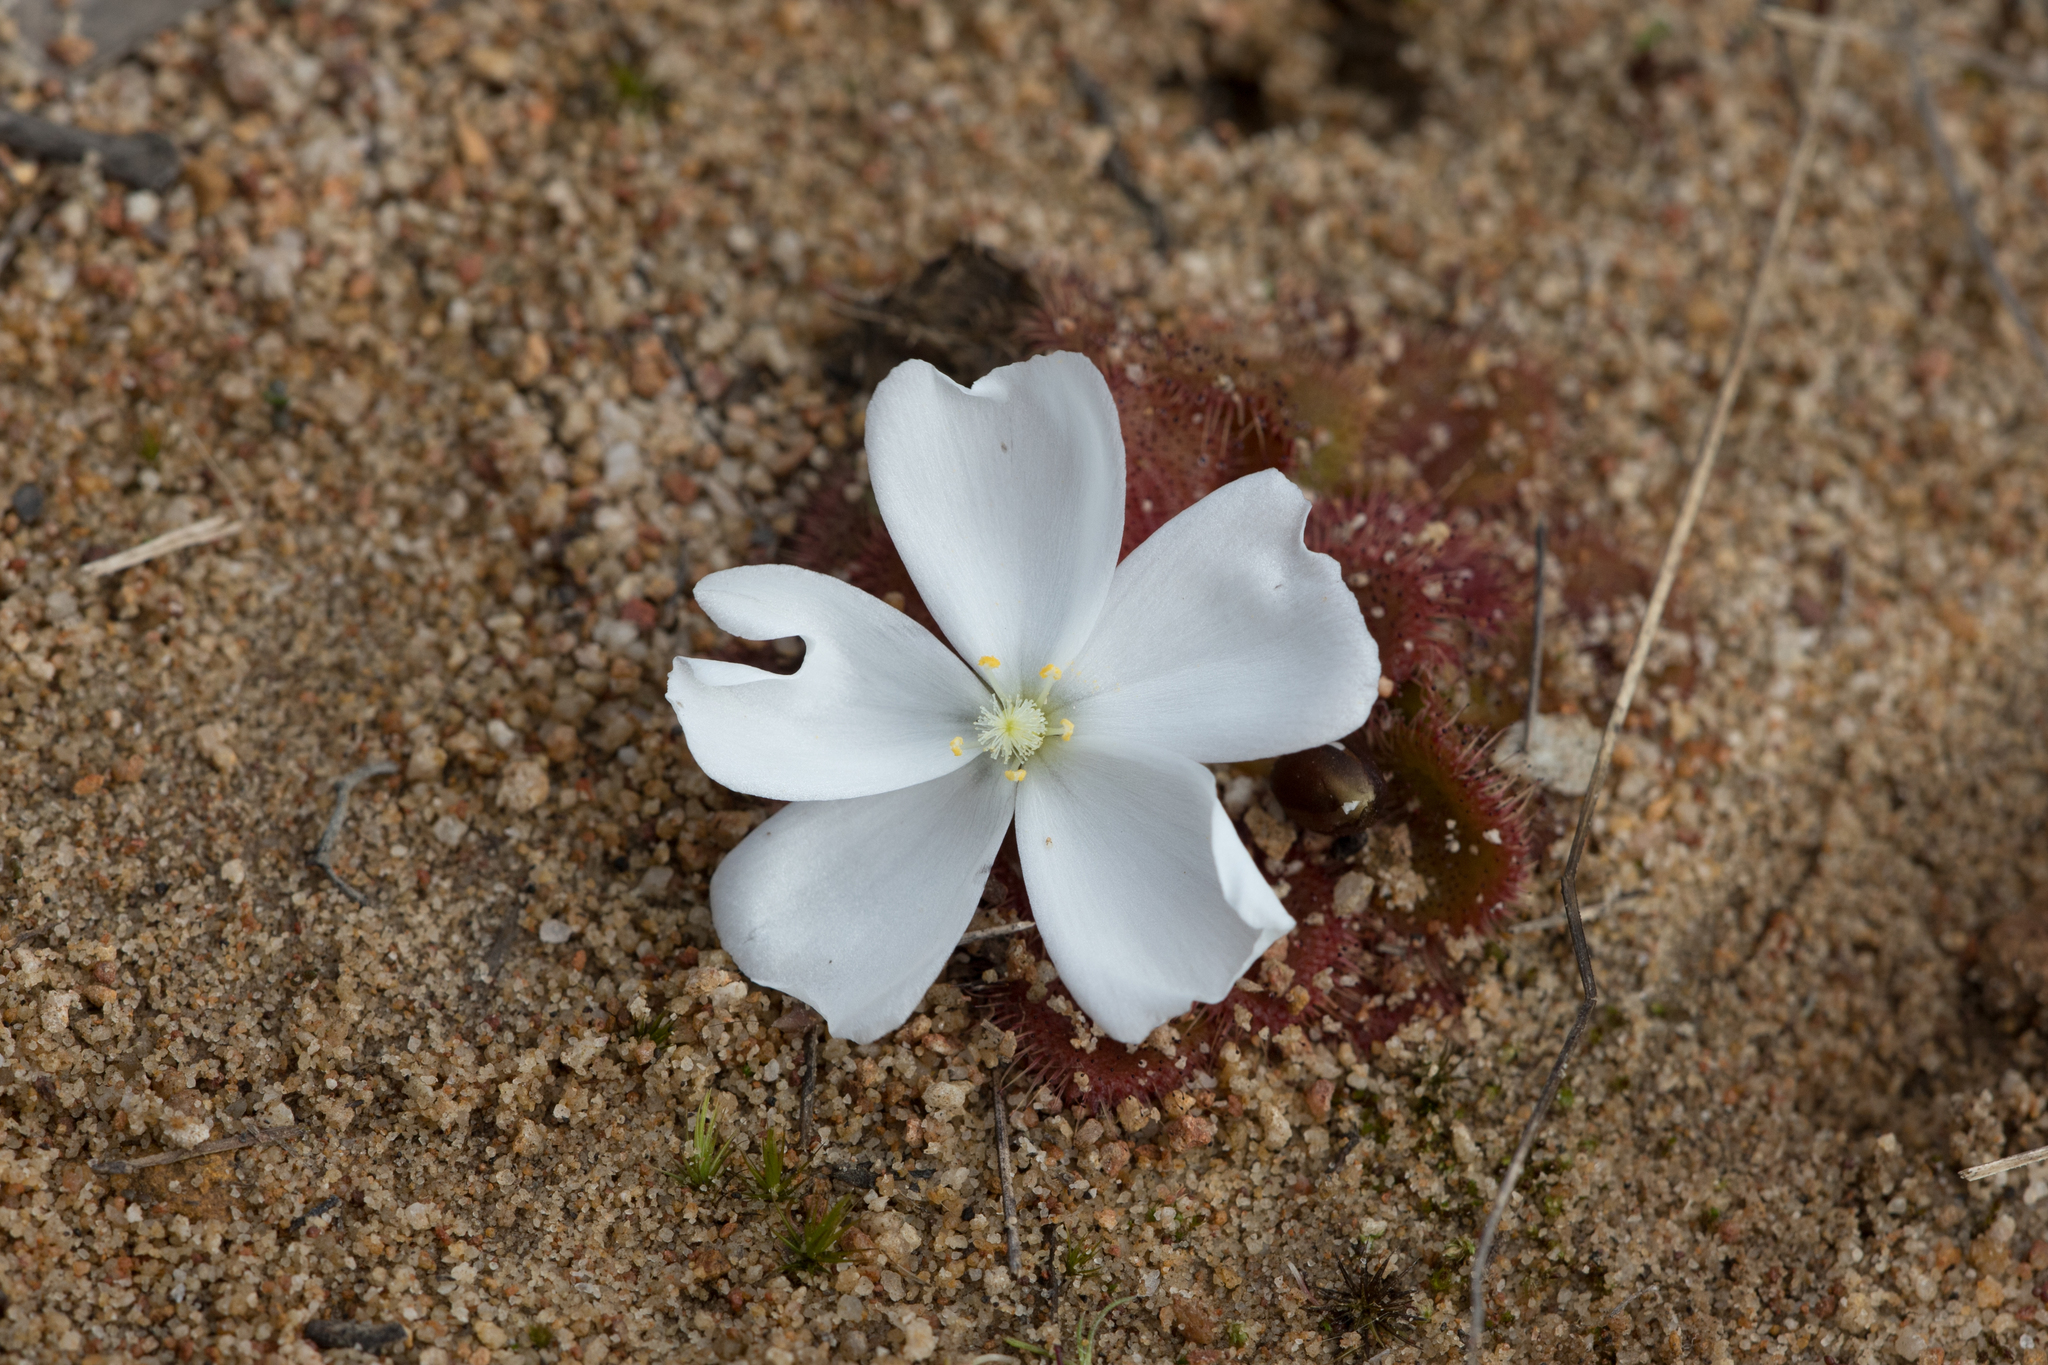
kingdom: Plantae
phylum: Tracheophyta
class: Magnoliopsida
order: Caryophyllales
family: Droseraceae
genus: Drosera
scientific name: Drosera whittakeri
